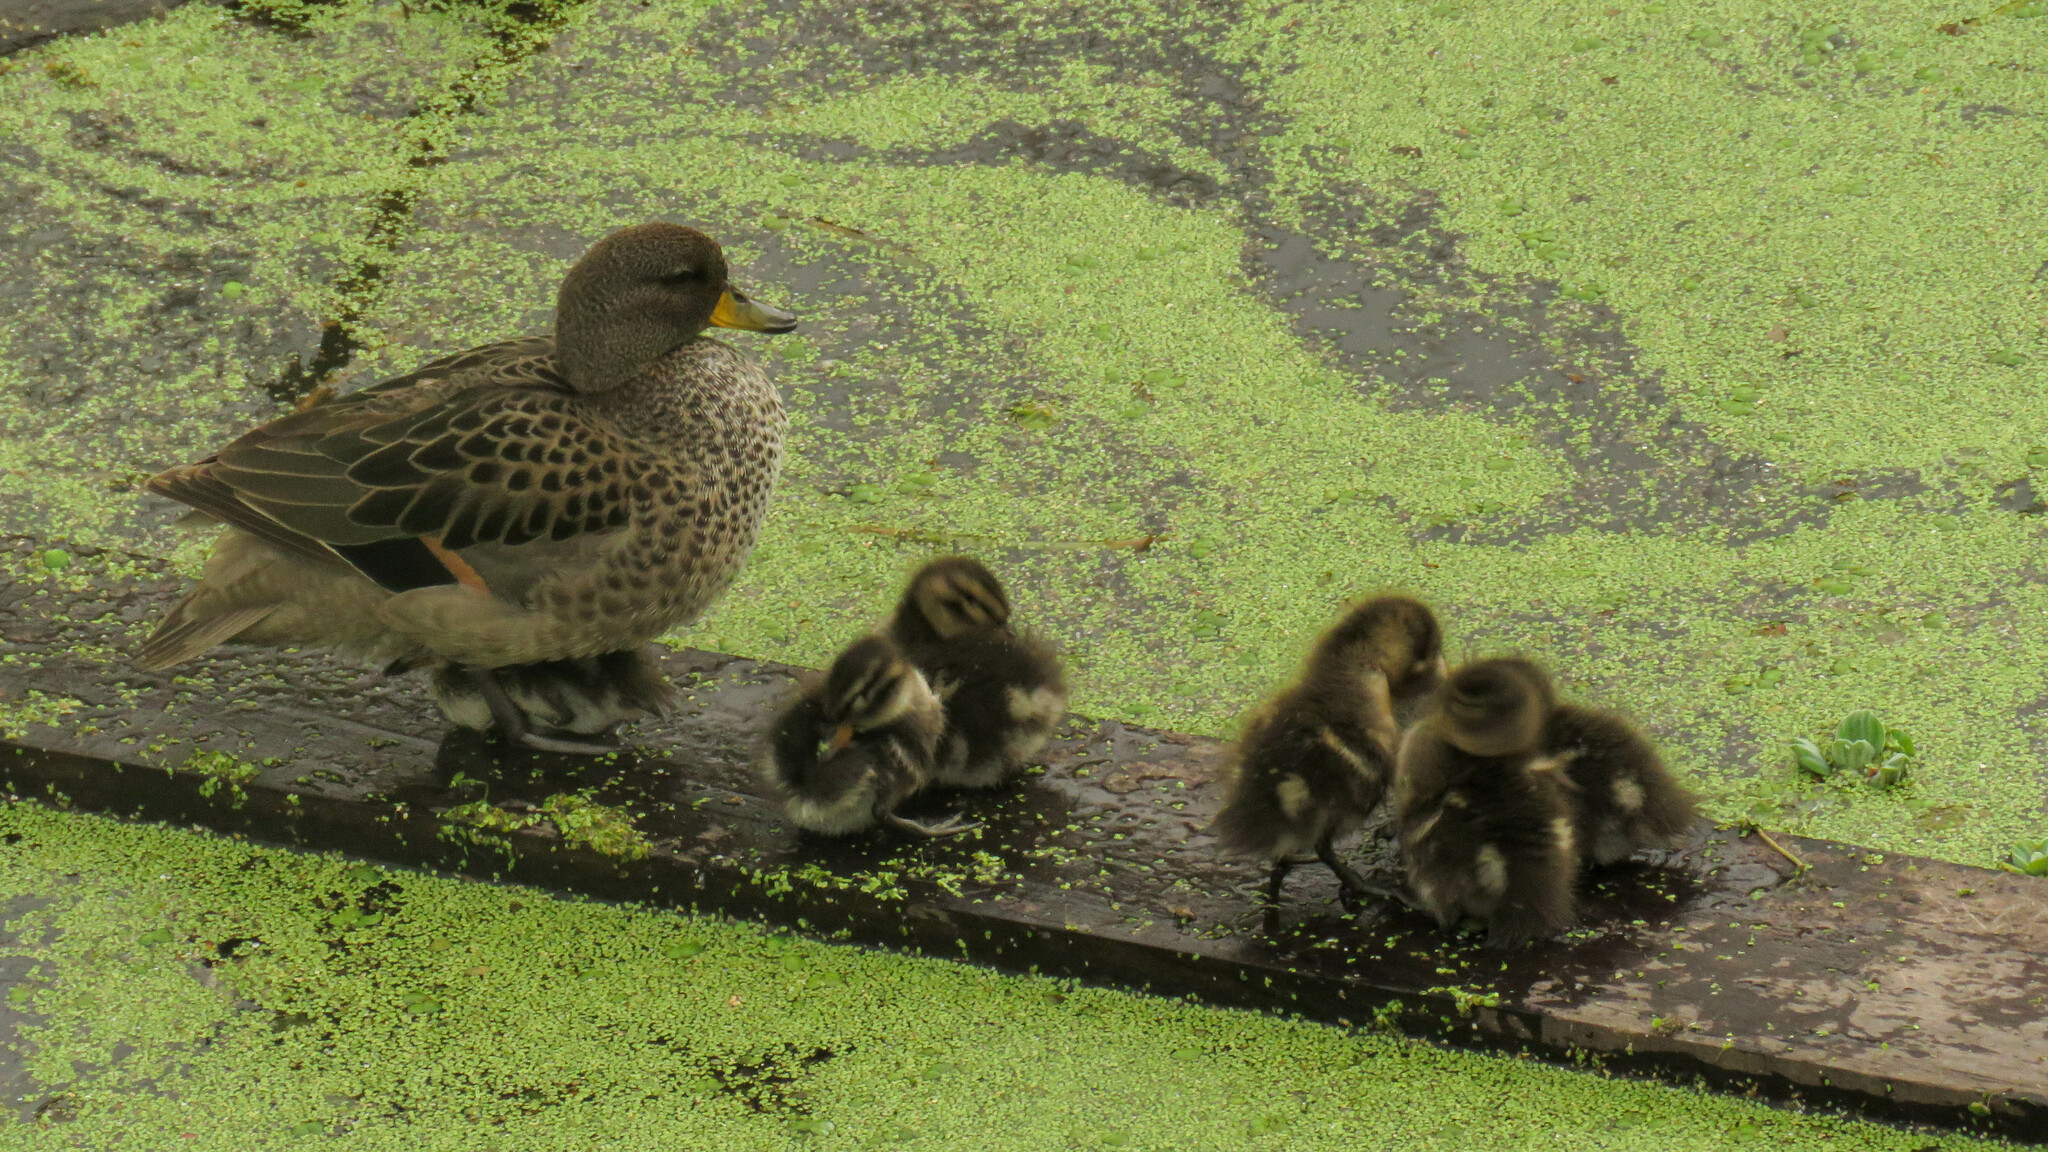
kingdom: Animalia
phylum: Chordata
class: Aves
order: Anseriformes
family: Anatidae
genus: Anas
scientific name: Anas flavirostris
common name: Yellow-billed teal
